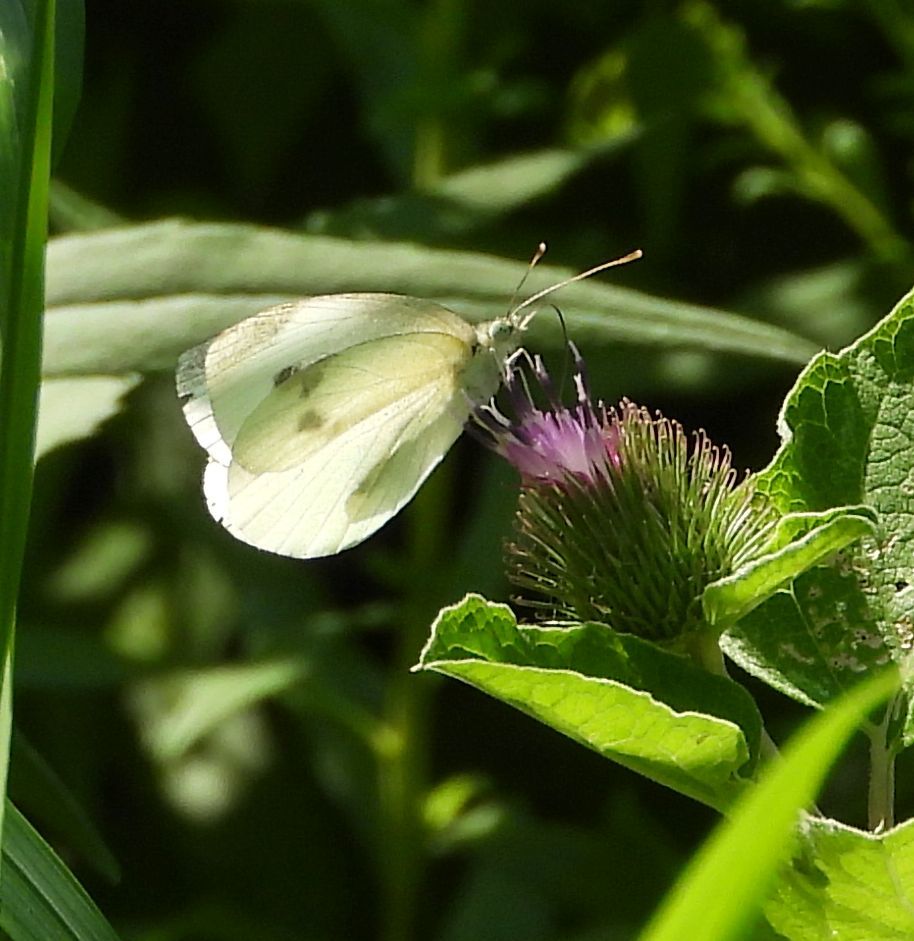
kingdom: Animalia
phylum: Arthropoda
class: Insecta
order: Lepidoptera
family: Pieridae
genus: Pieris
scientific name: Pieris rapae
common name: Small white
